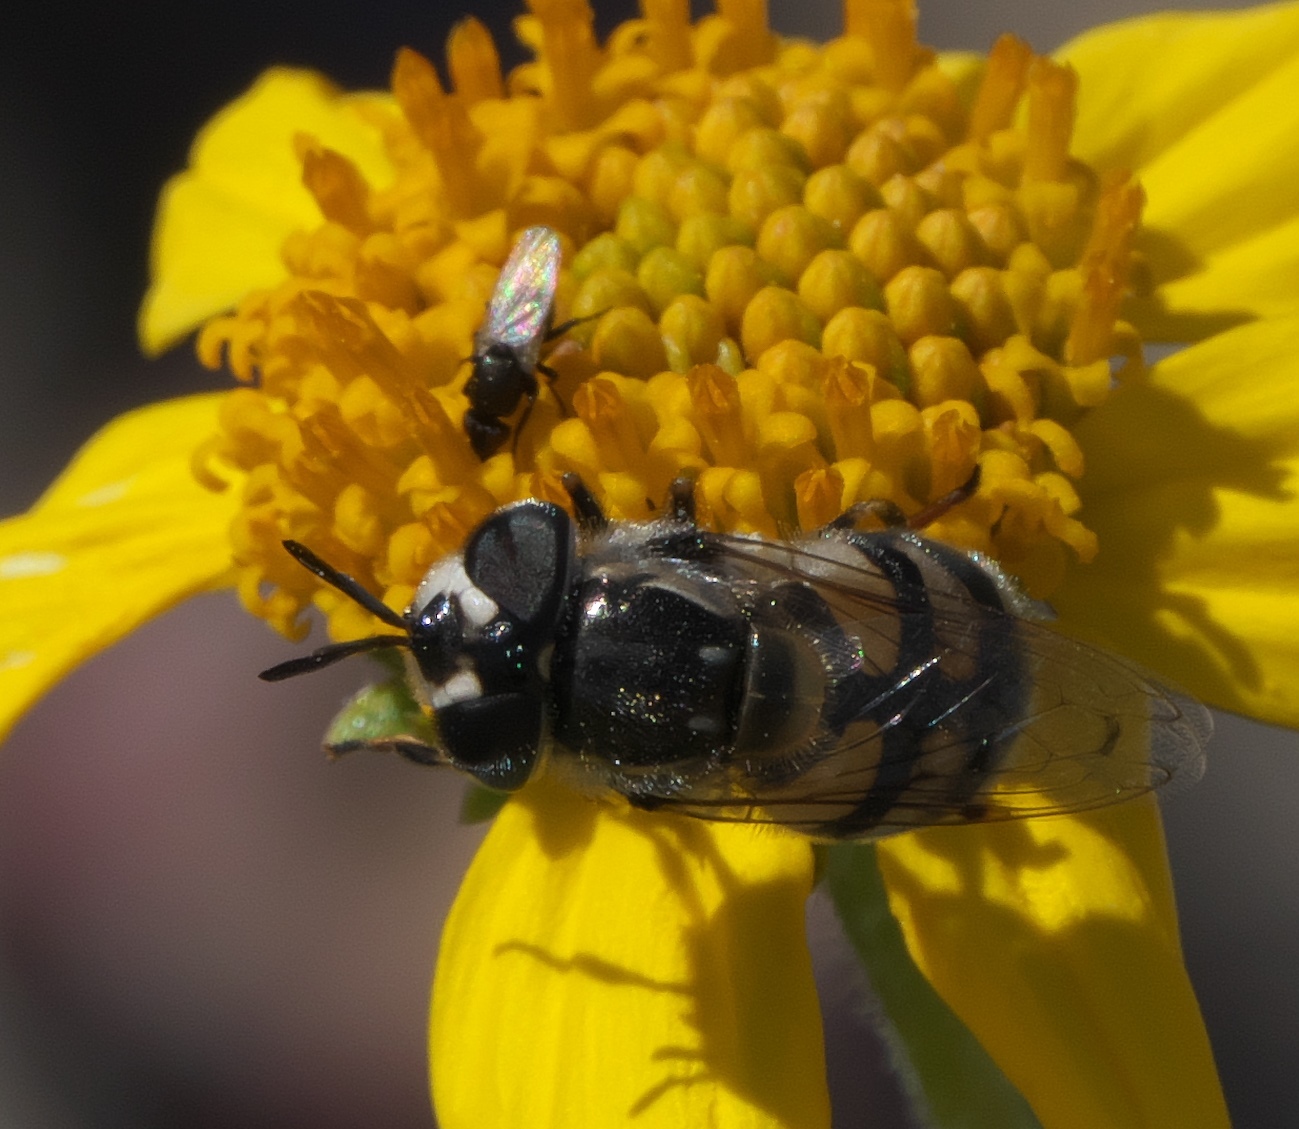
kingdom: Animalia
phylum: Arthropoda
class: Insecta
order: Diptera
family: Syrphidae
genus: Copestylum
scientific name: Copestylum marginatum
